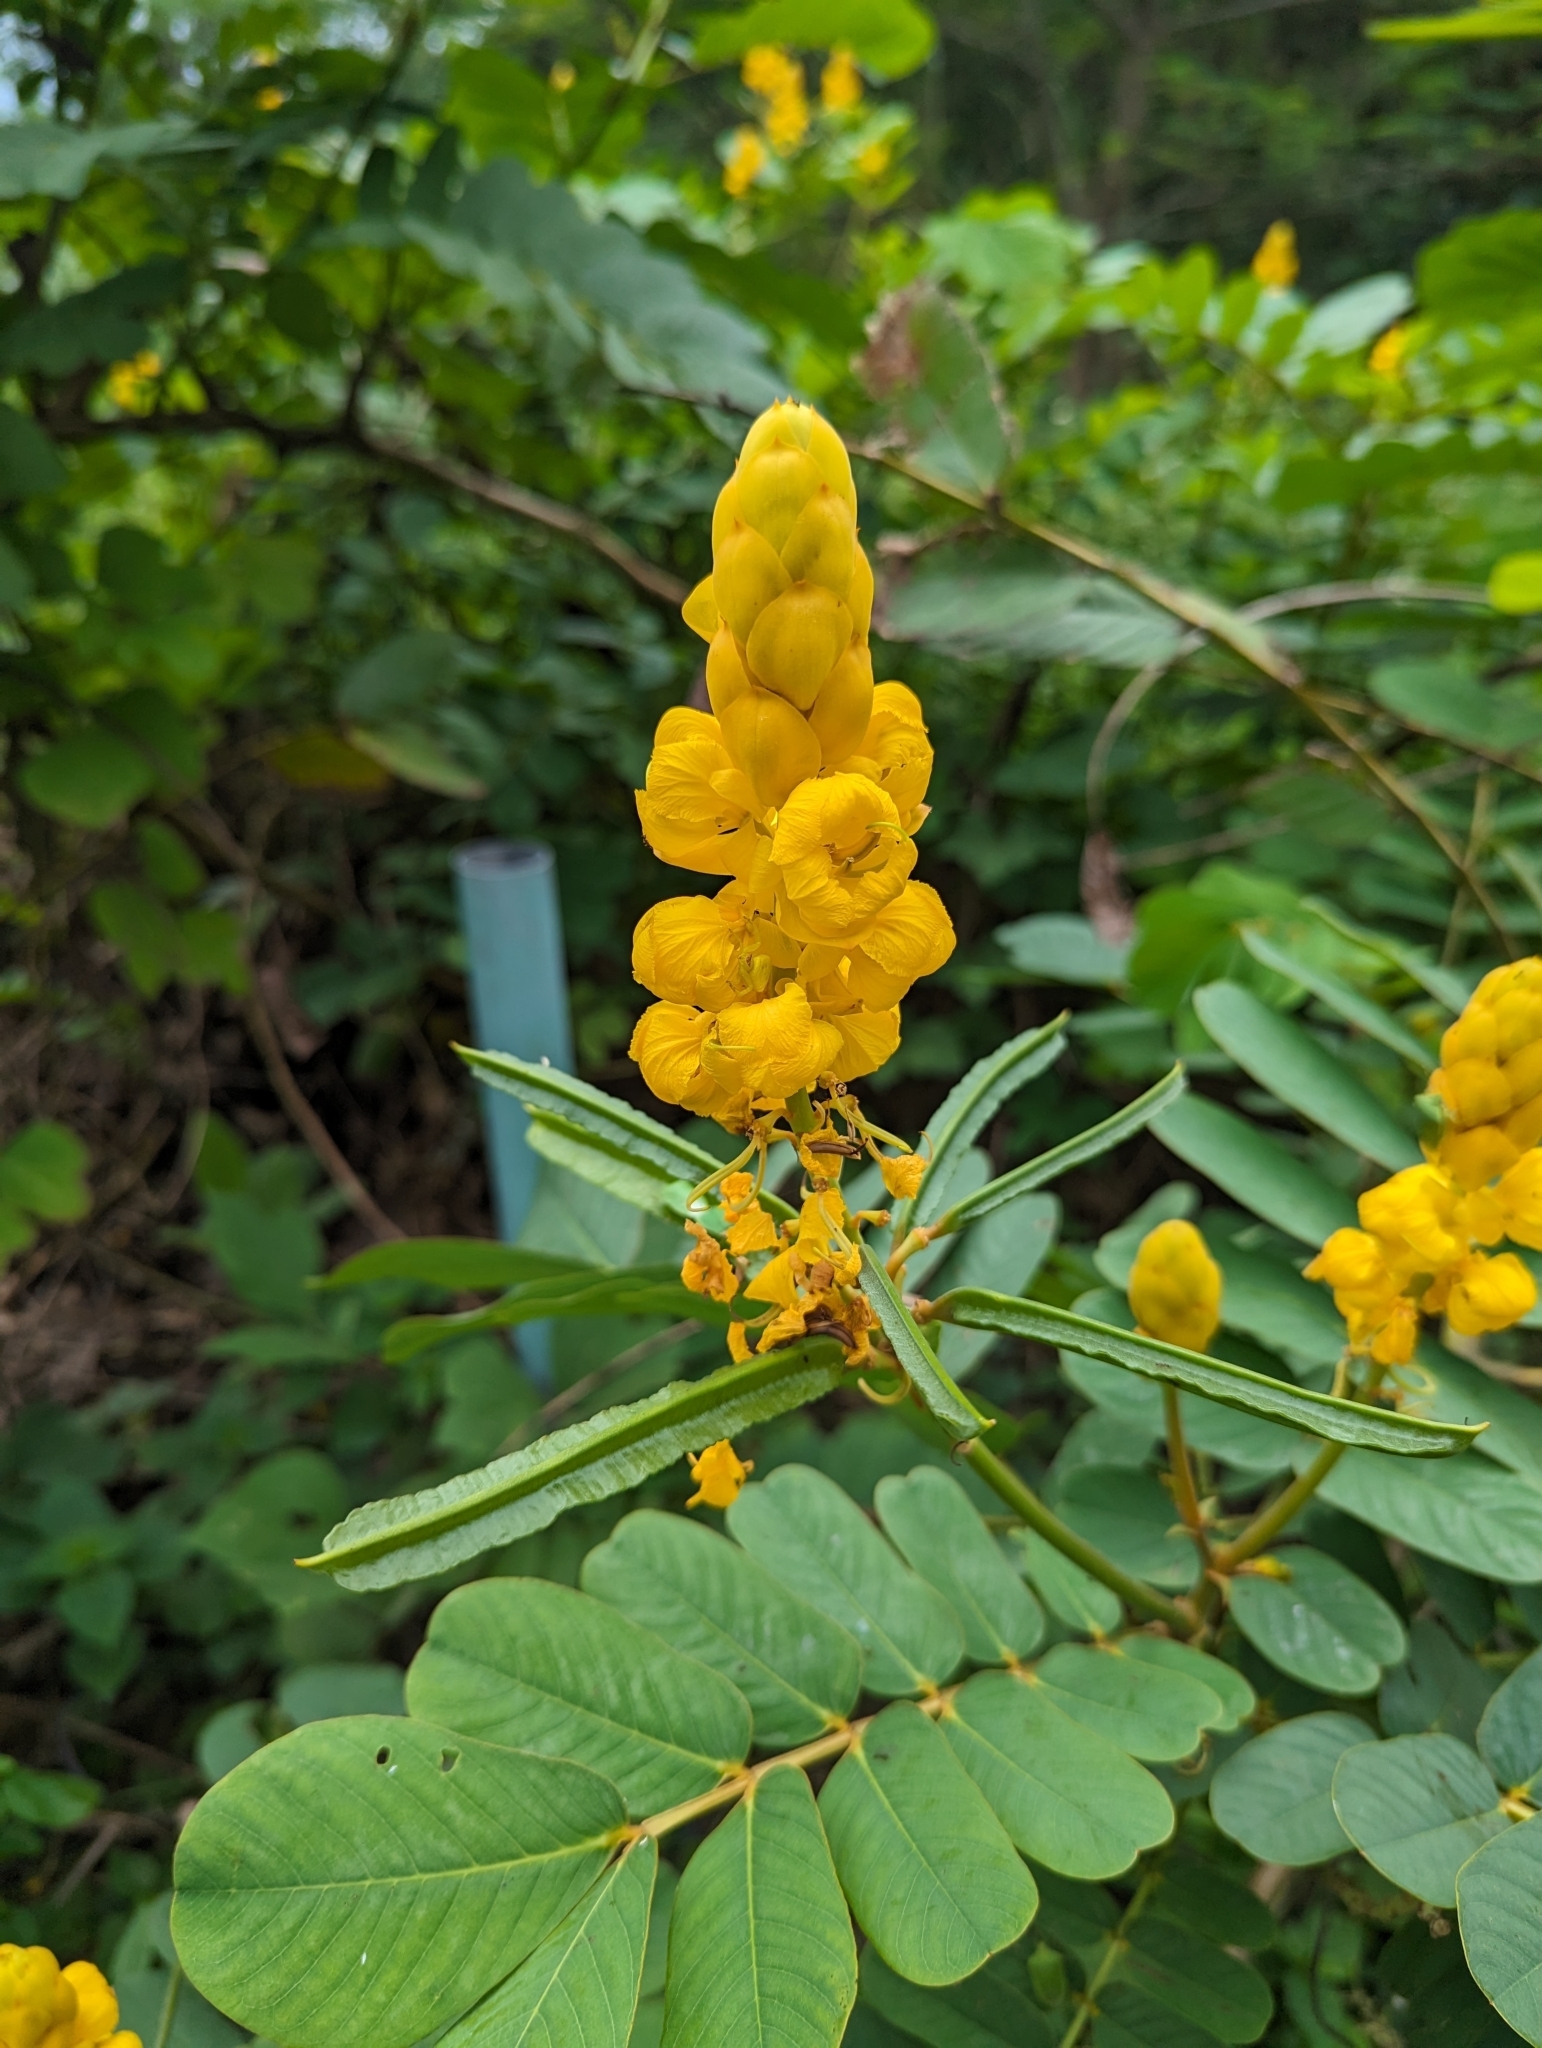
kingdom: Plantae
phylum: Tracheophyta
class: Magnoliopsida
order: Fabales
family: Fabaceae
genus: Senna
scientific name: Senna alata
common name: Emperor's candlesticks
